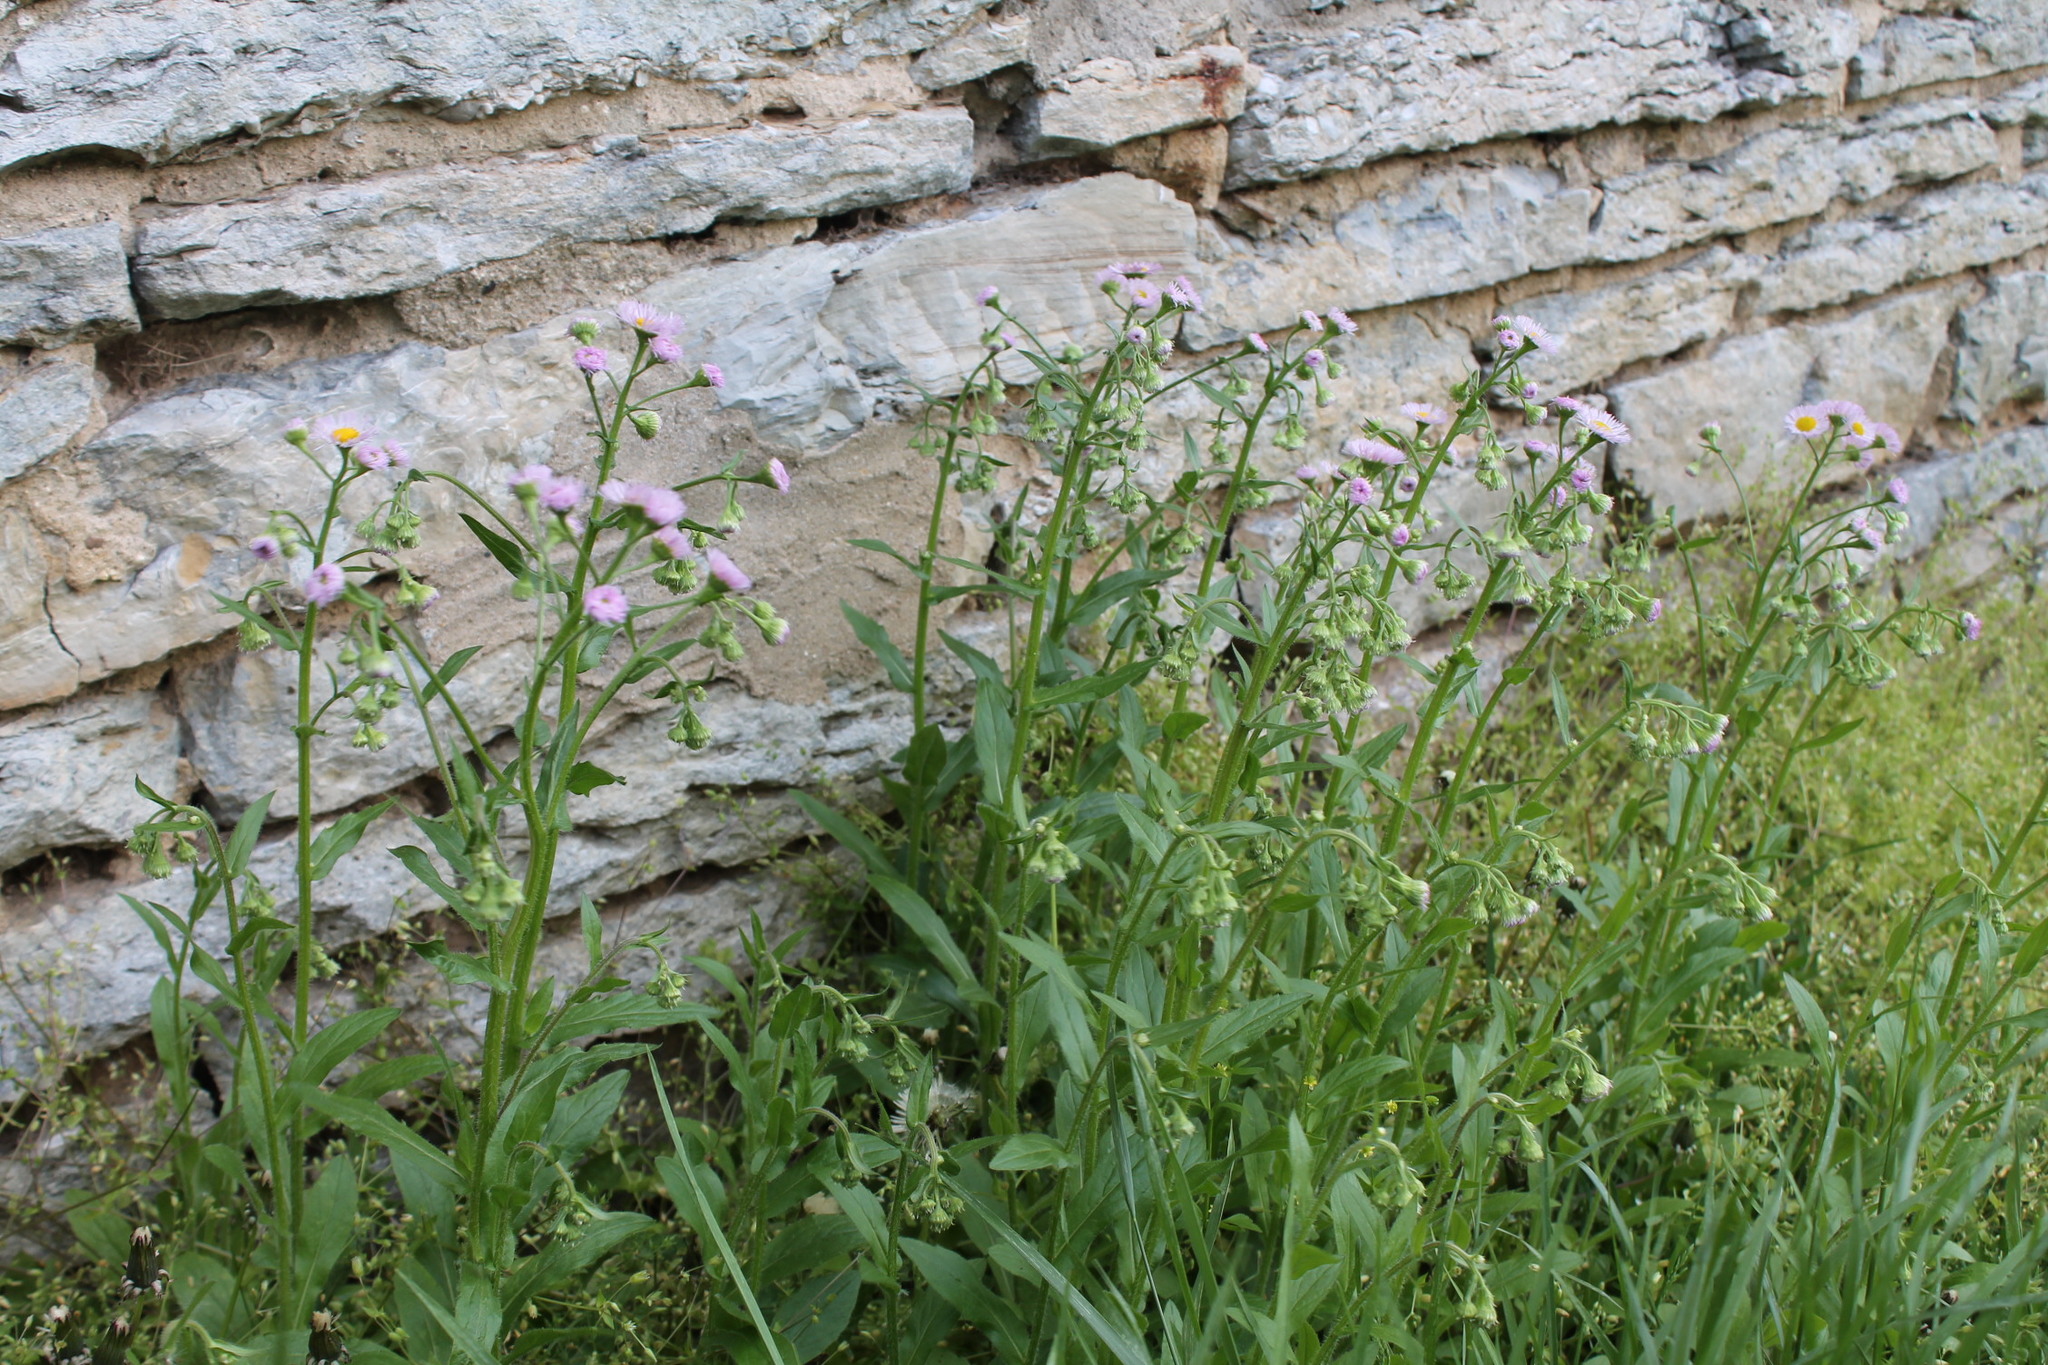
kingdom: Plantae
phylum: Tracheophyta
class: Magnoliopsida
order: Asterales
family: Asteraceae
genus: Erigeron
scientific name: Erigeron philadelphicus
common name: Robin's-plantain
